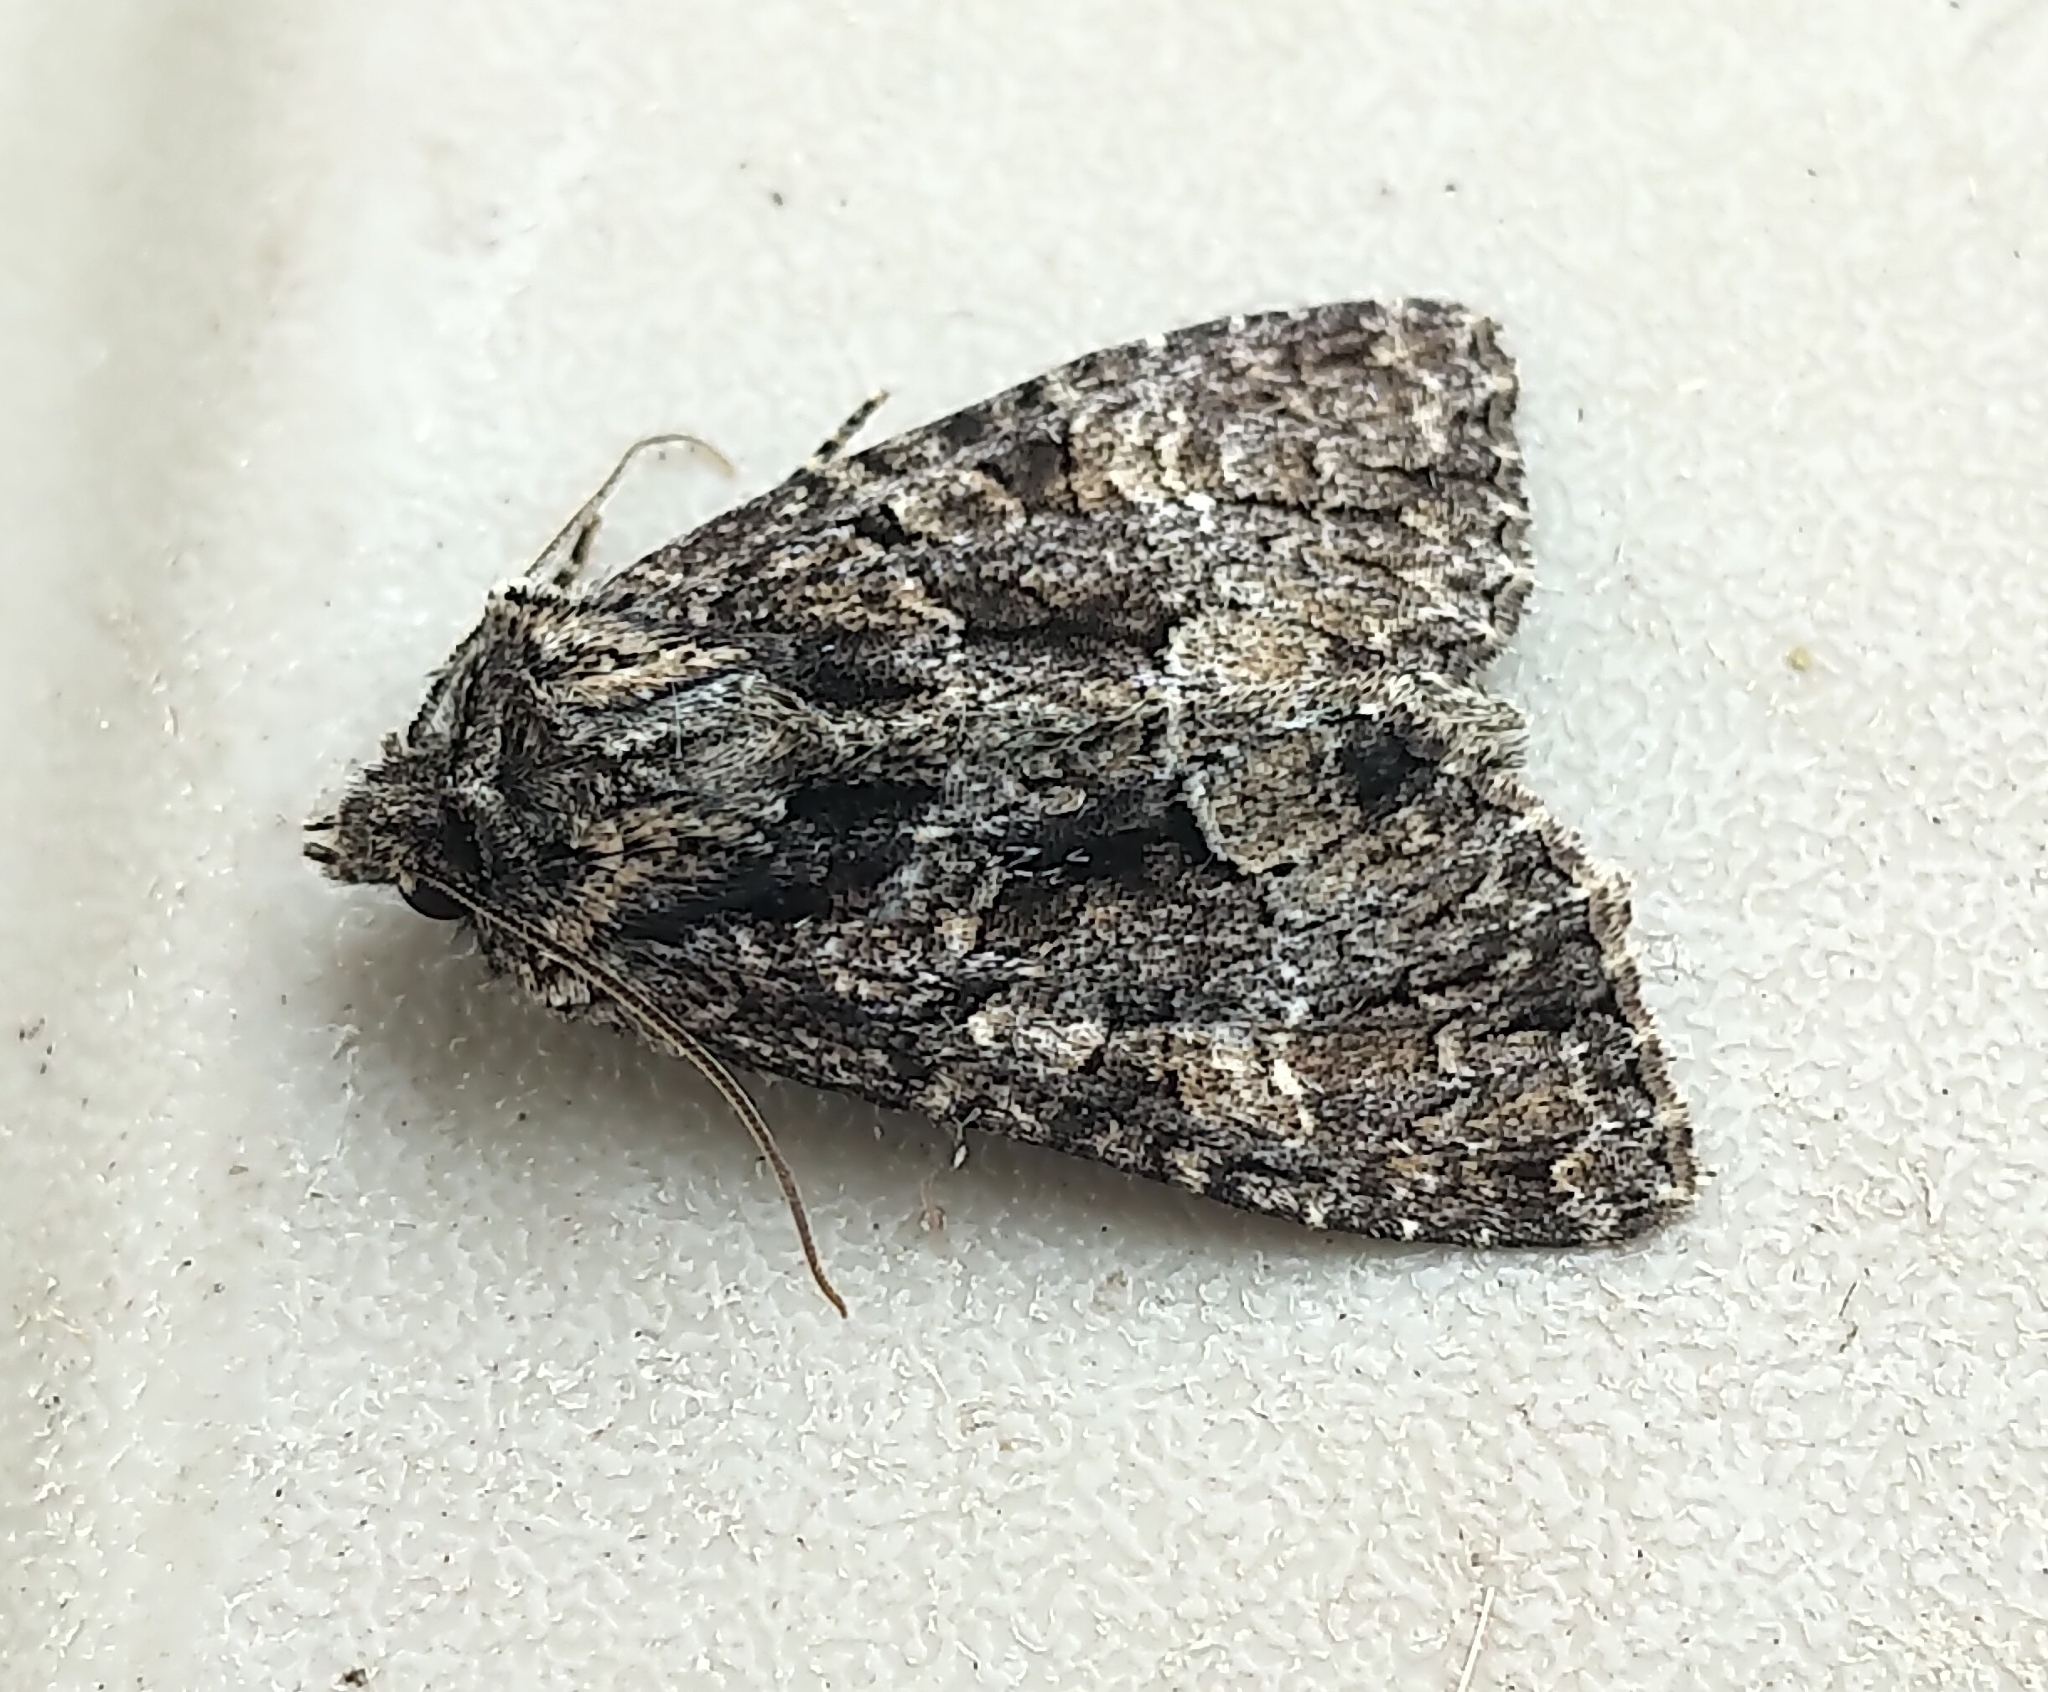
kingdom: Animalia
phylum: Arthropoda
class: Insecta
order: Lepidoptera
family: Noctuidae
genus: Platypolia
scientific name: Platypolia mactata
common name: Adorable brocade moth
